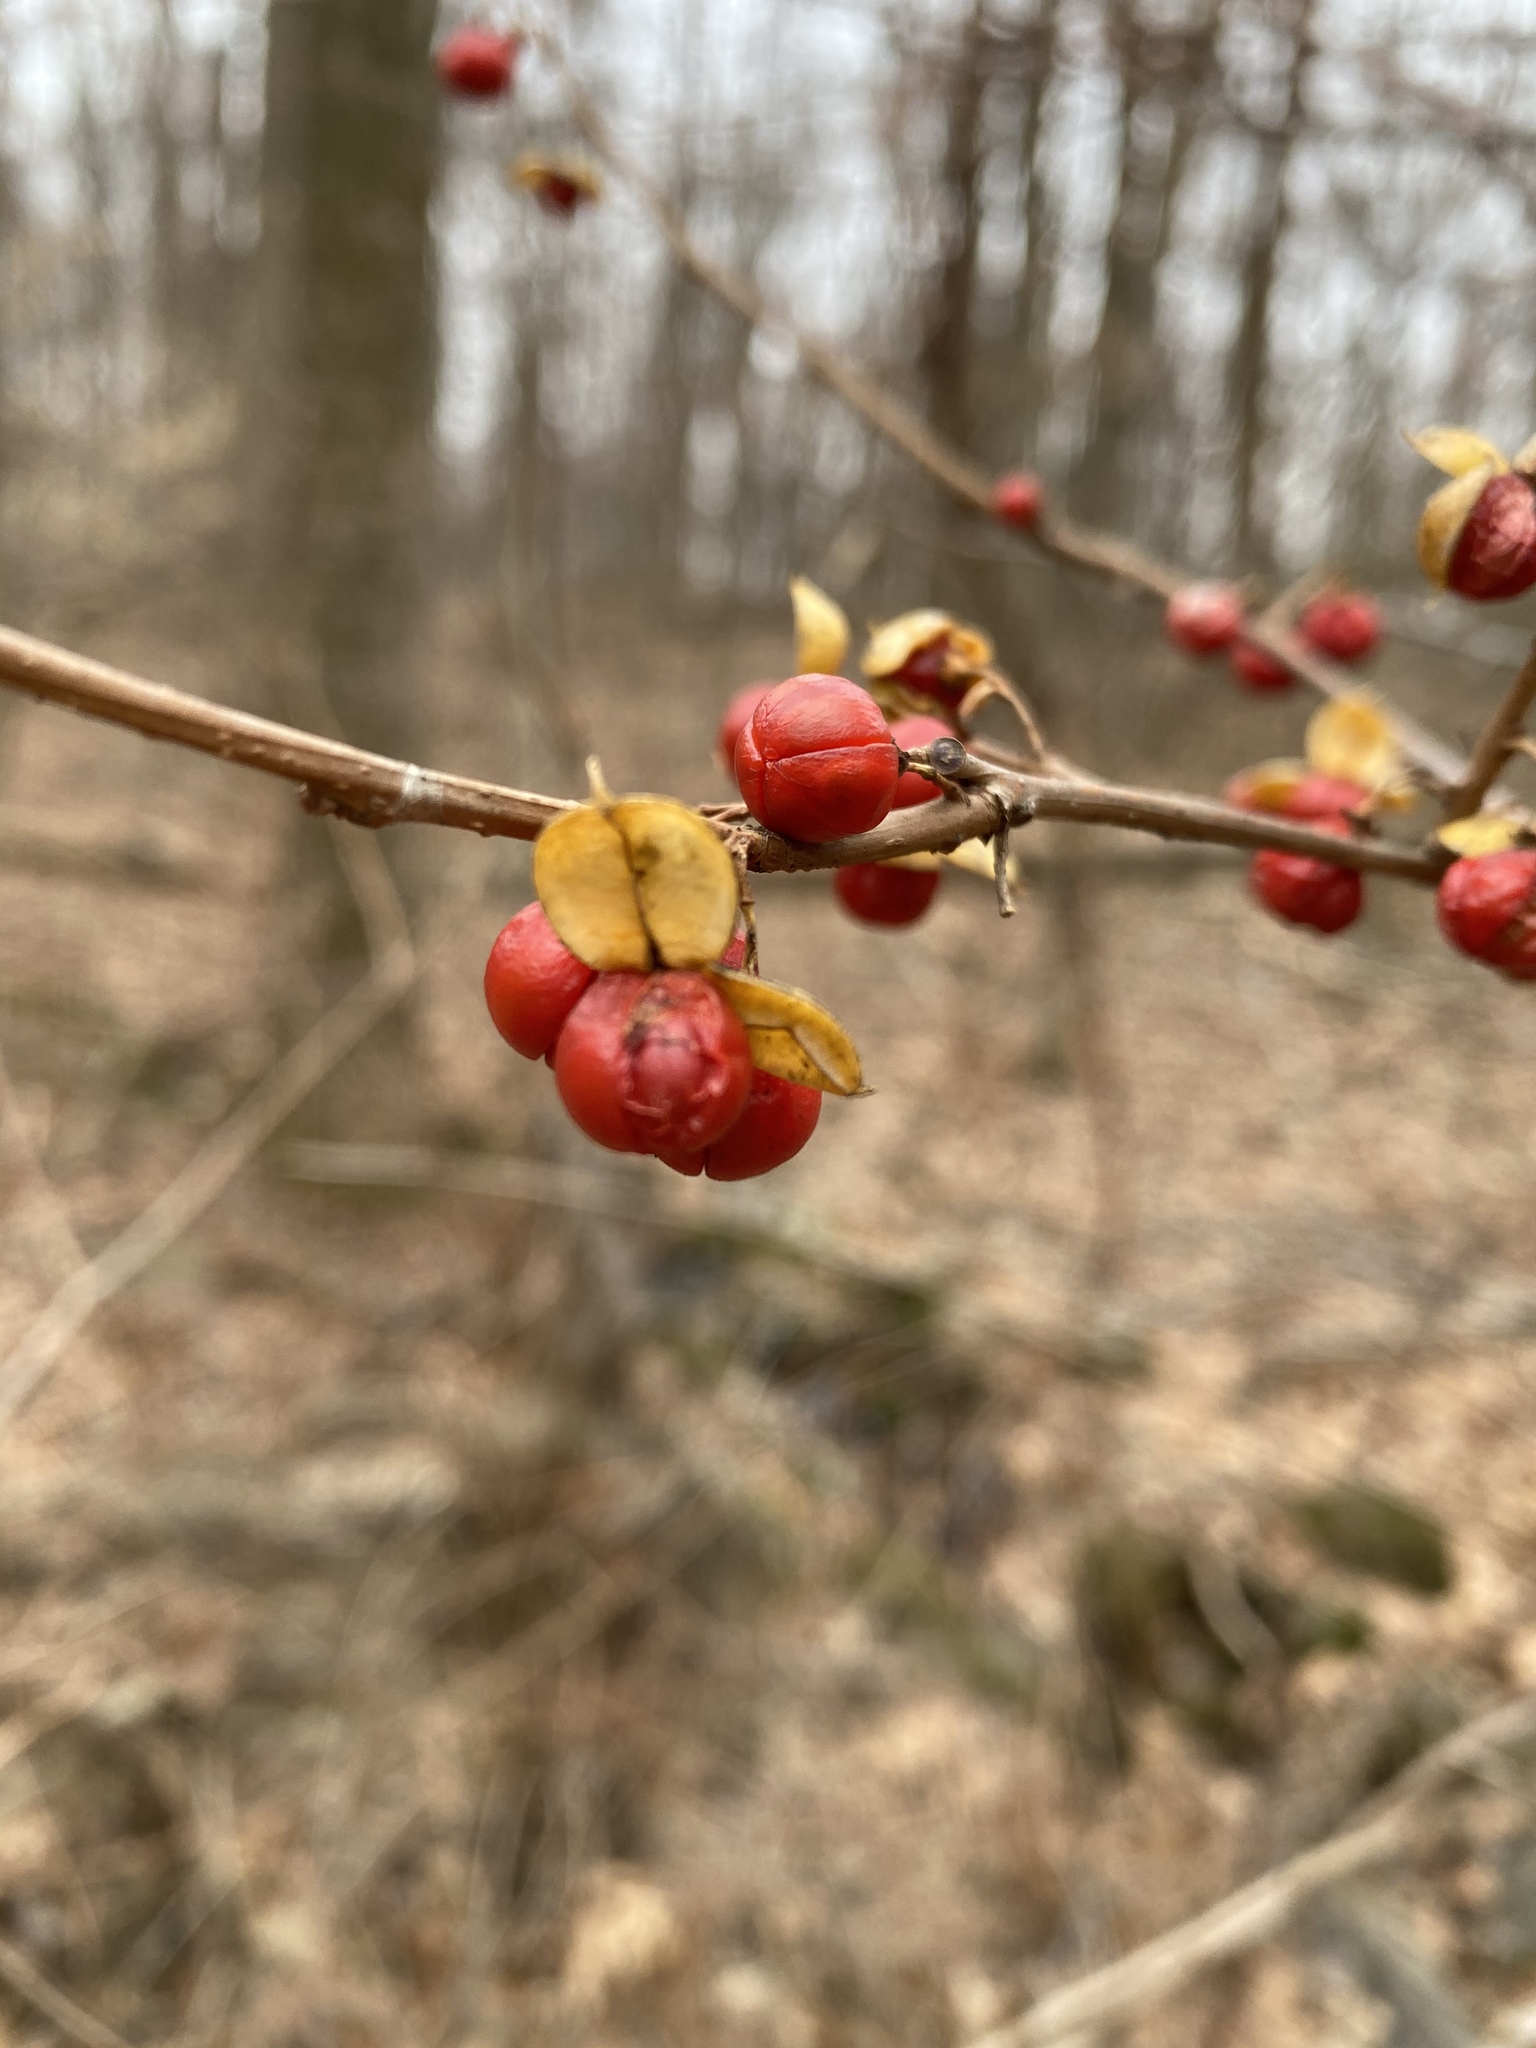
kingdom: Plantae
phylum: Tracheophyta
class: Magnoliopsida
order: Celastrales
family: Celastraceae
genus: Celastrus
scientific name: Celastrus orbiculatus
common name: Oriental bittersweet
